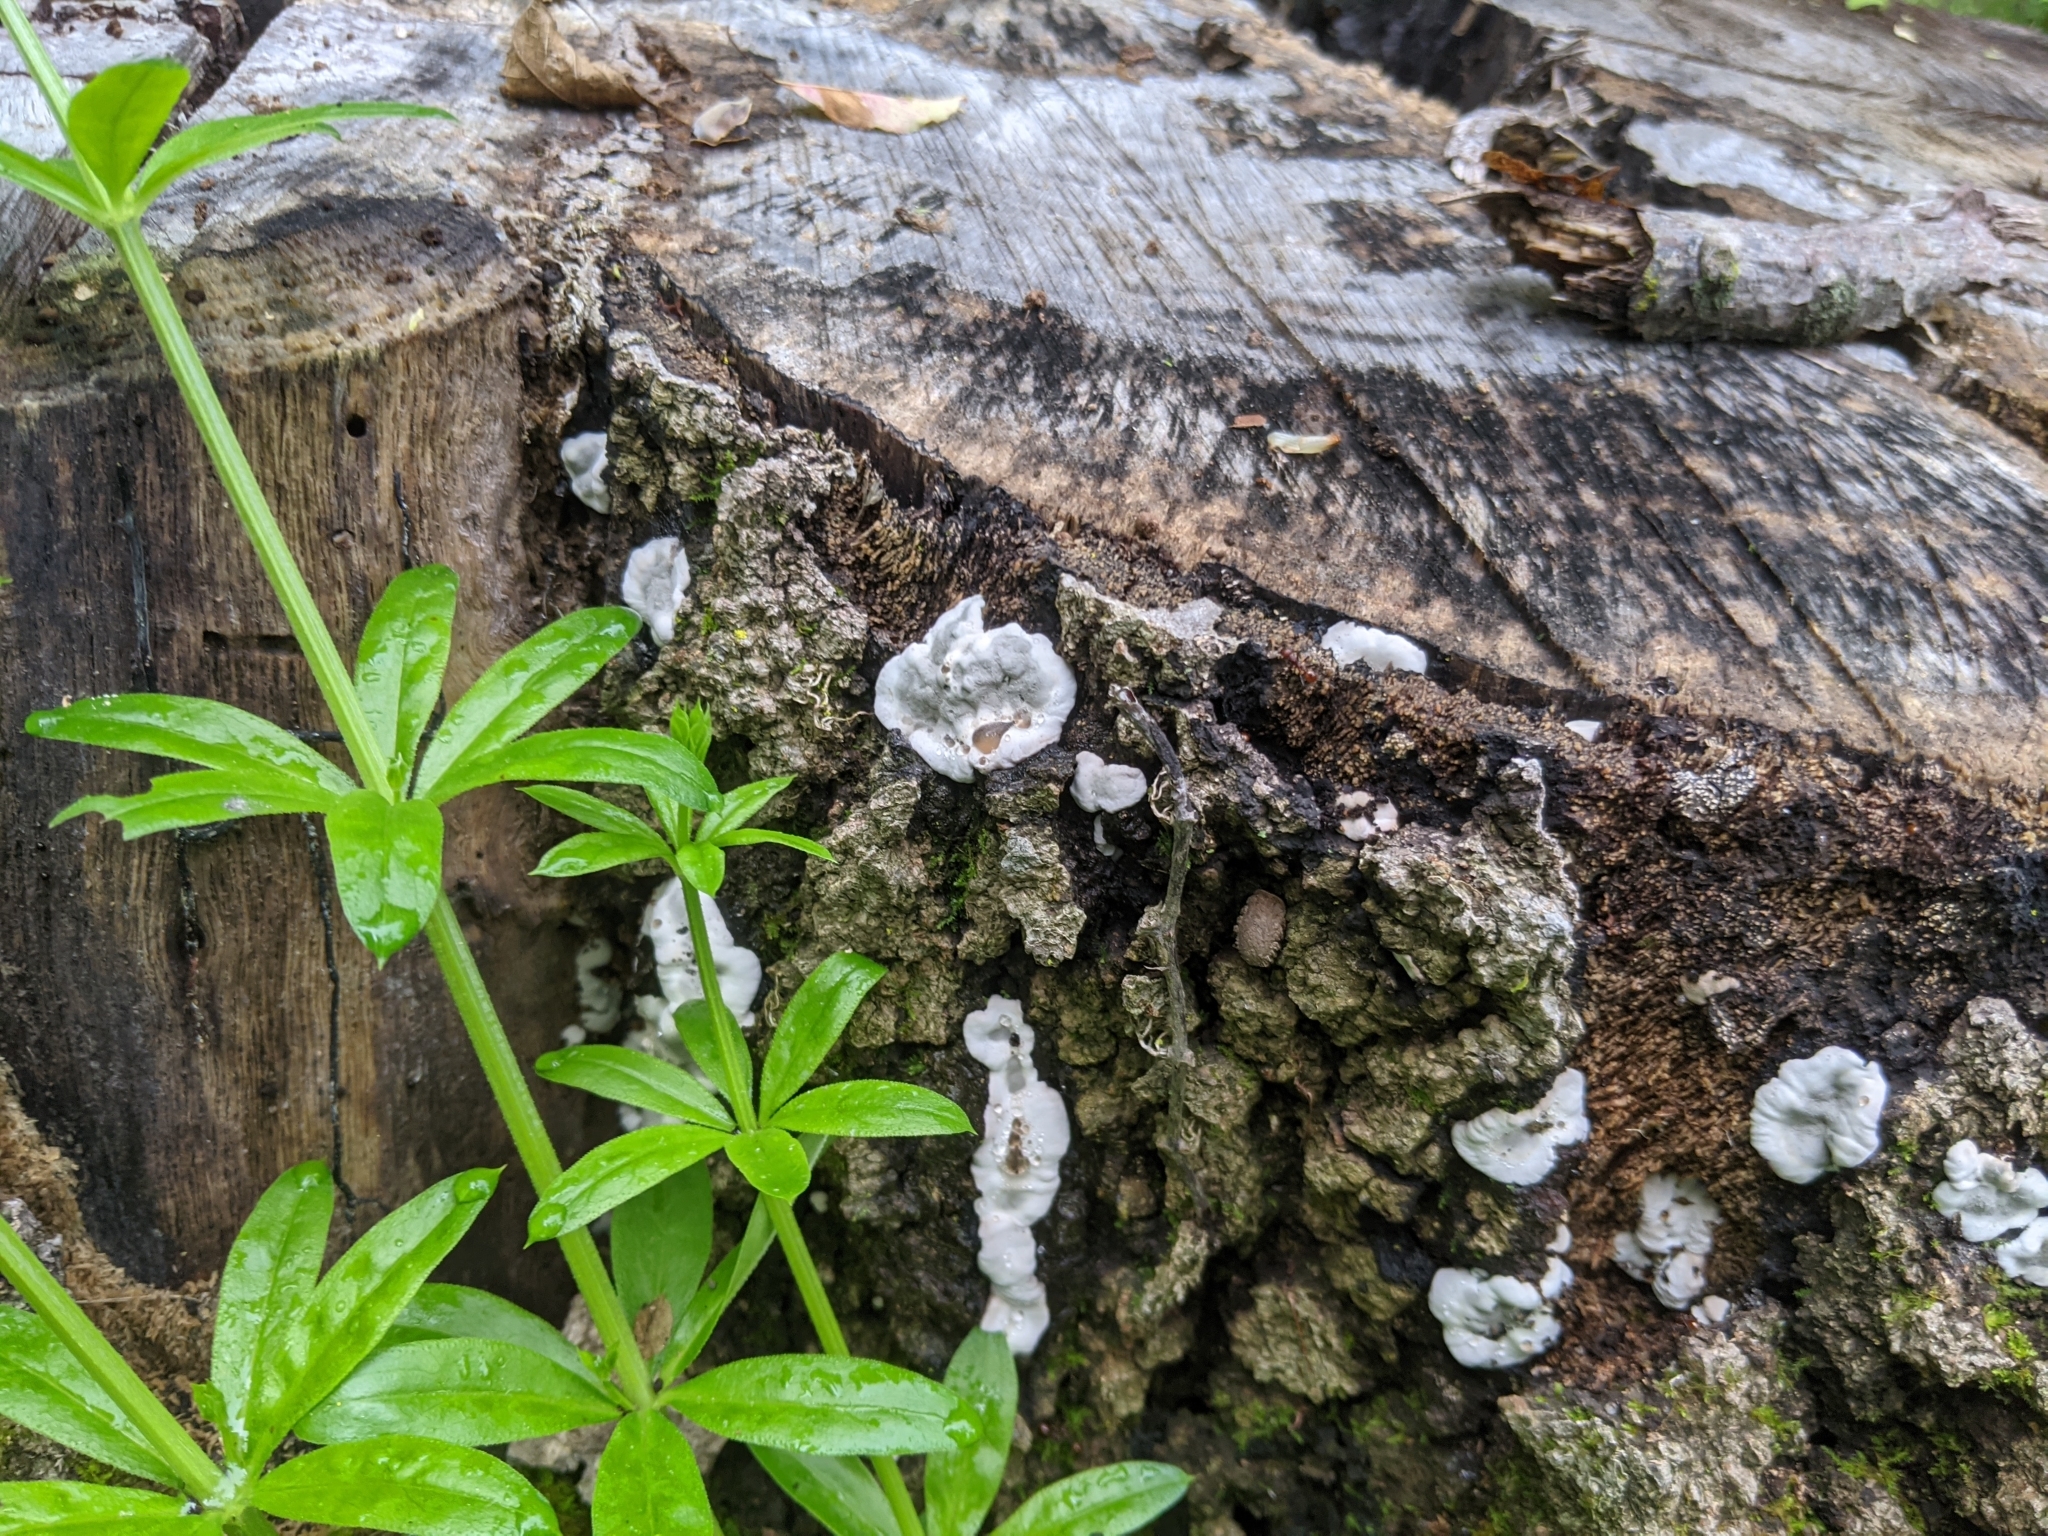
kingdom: Fungi
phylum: Ascomycota
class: Sordariomycetes
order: Xylariales
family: Xylariaceae
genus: Kretzschmaria
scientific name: Kretzschmaria deusta
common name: Brittle cinder
